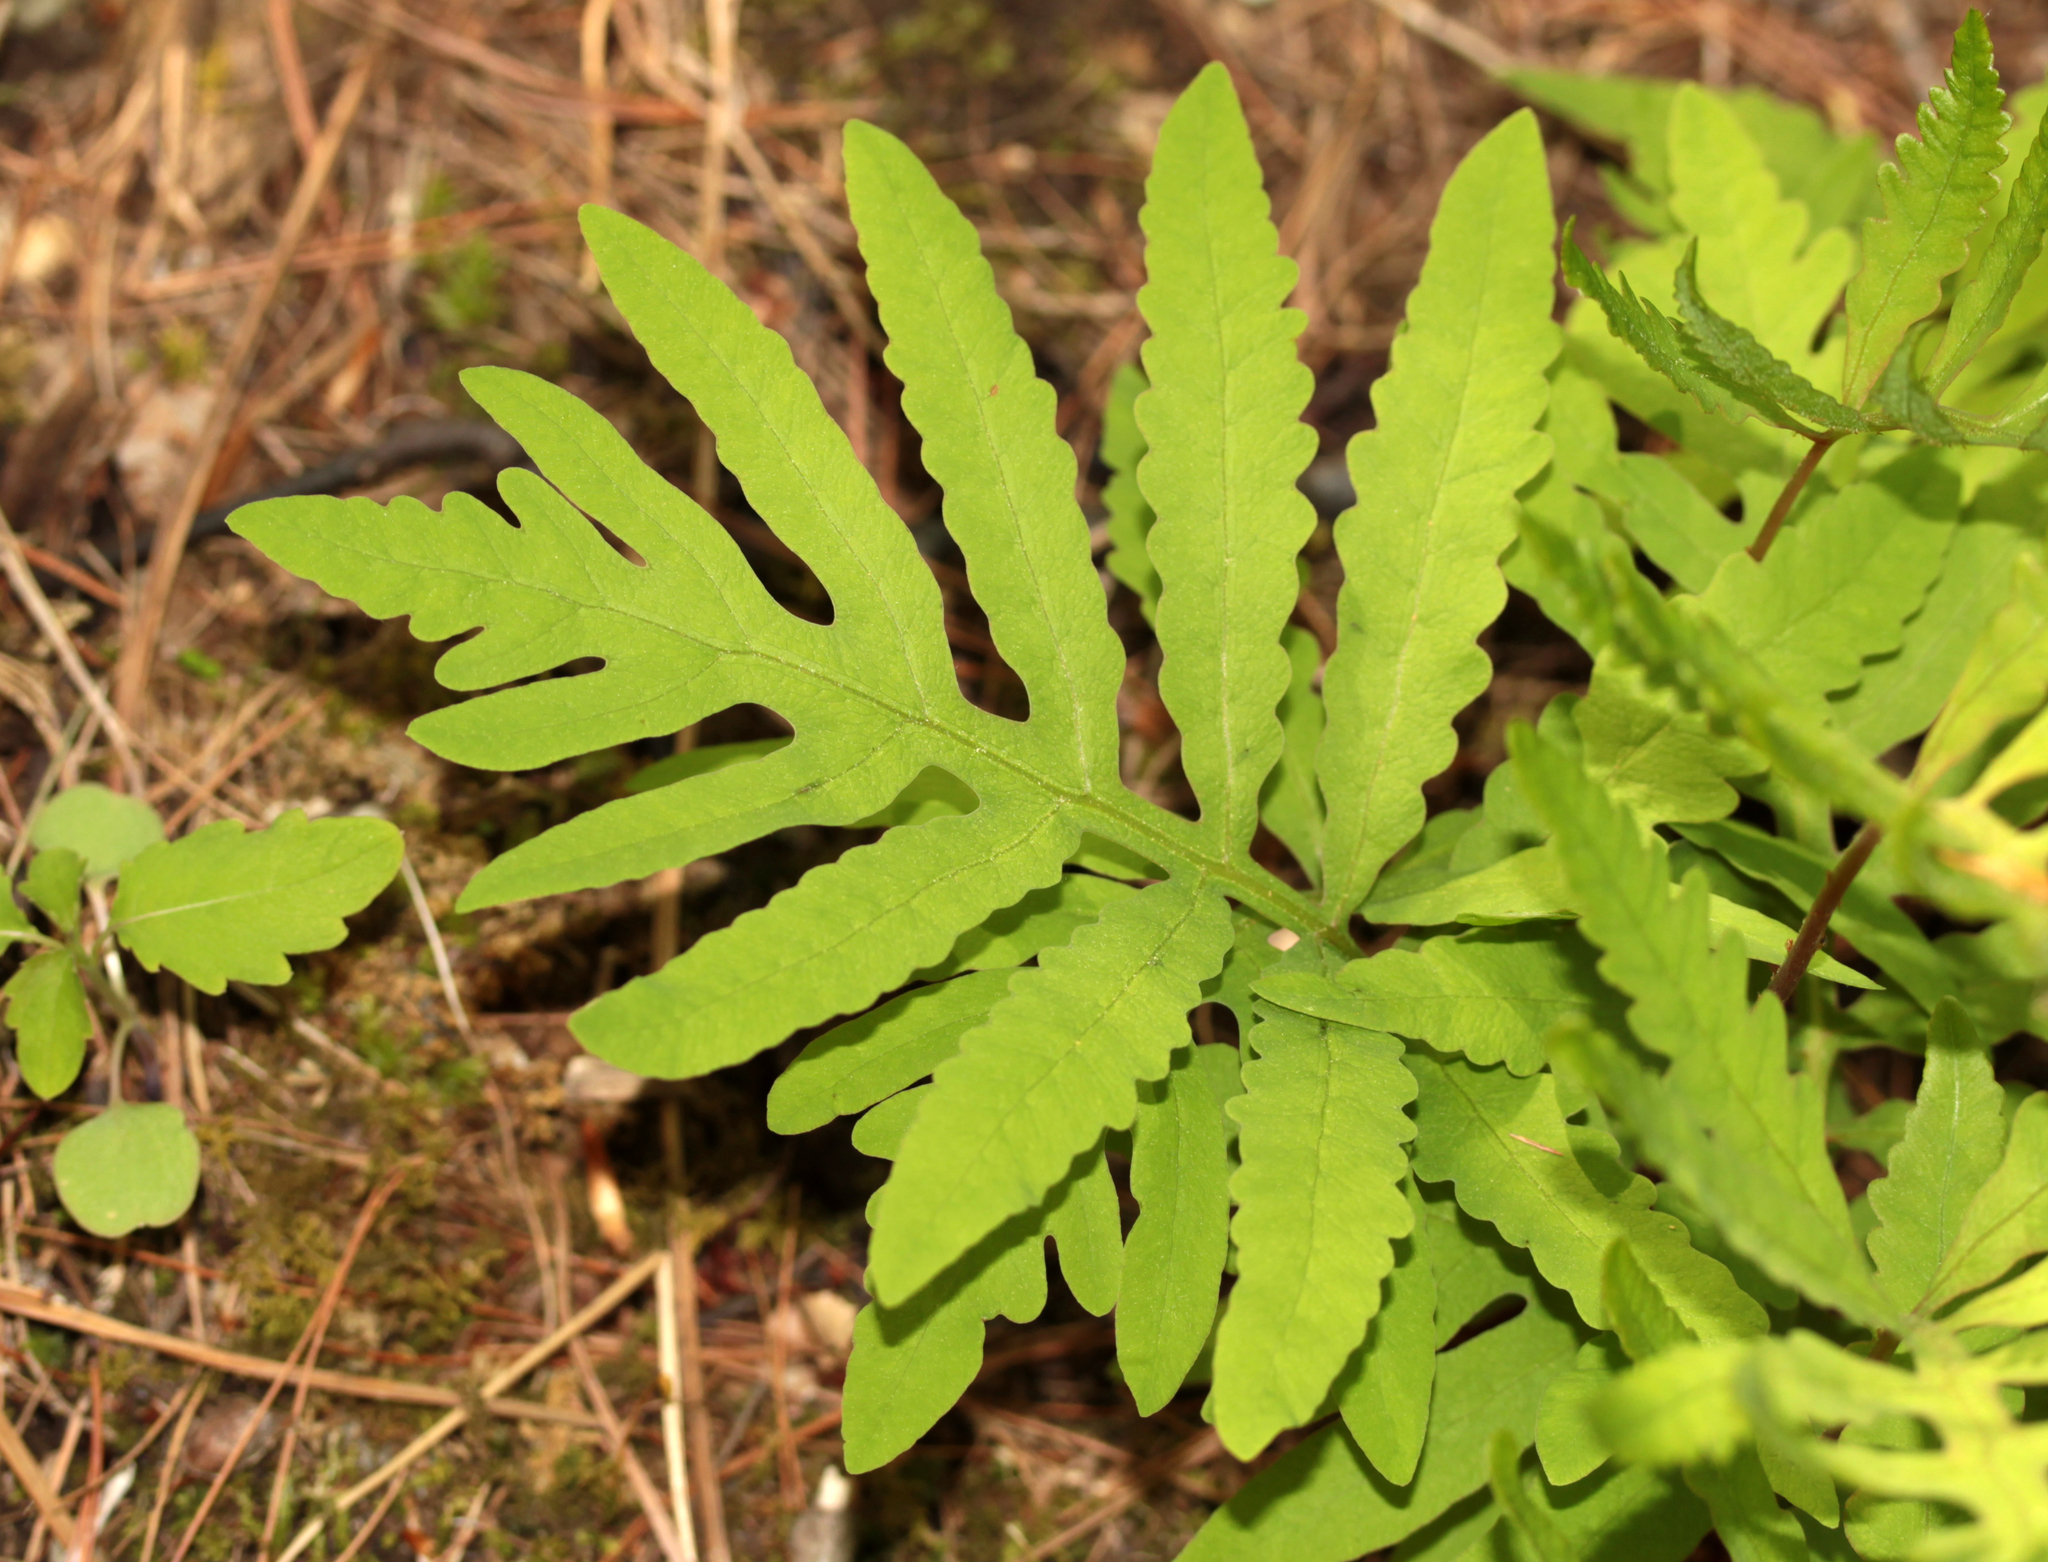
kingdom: Plantae
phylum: Tracheophyta
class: Polypodiopsida
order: Polypodiales
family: Onocleaceae
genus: Onoclea
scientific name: Onoclea sensibilis
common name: Sensitive fern
